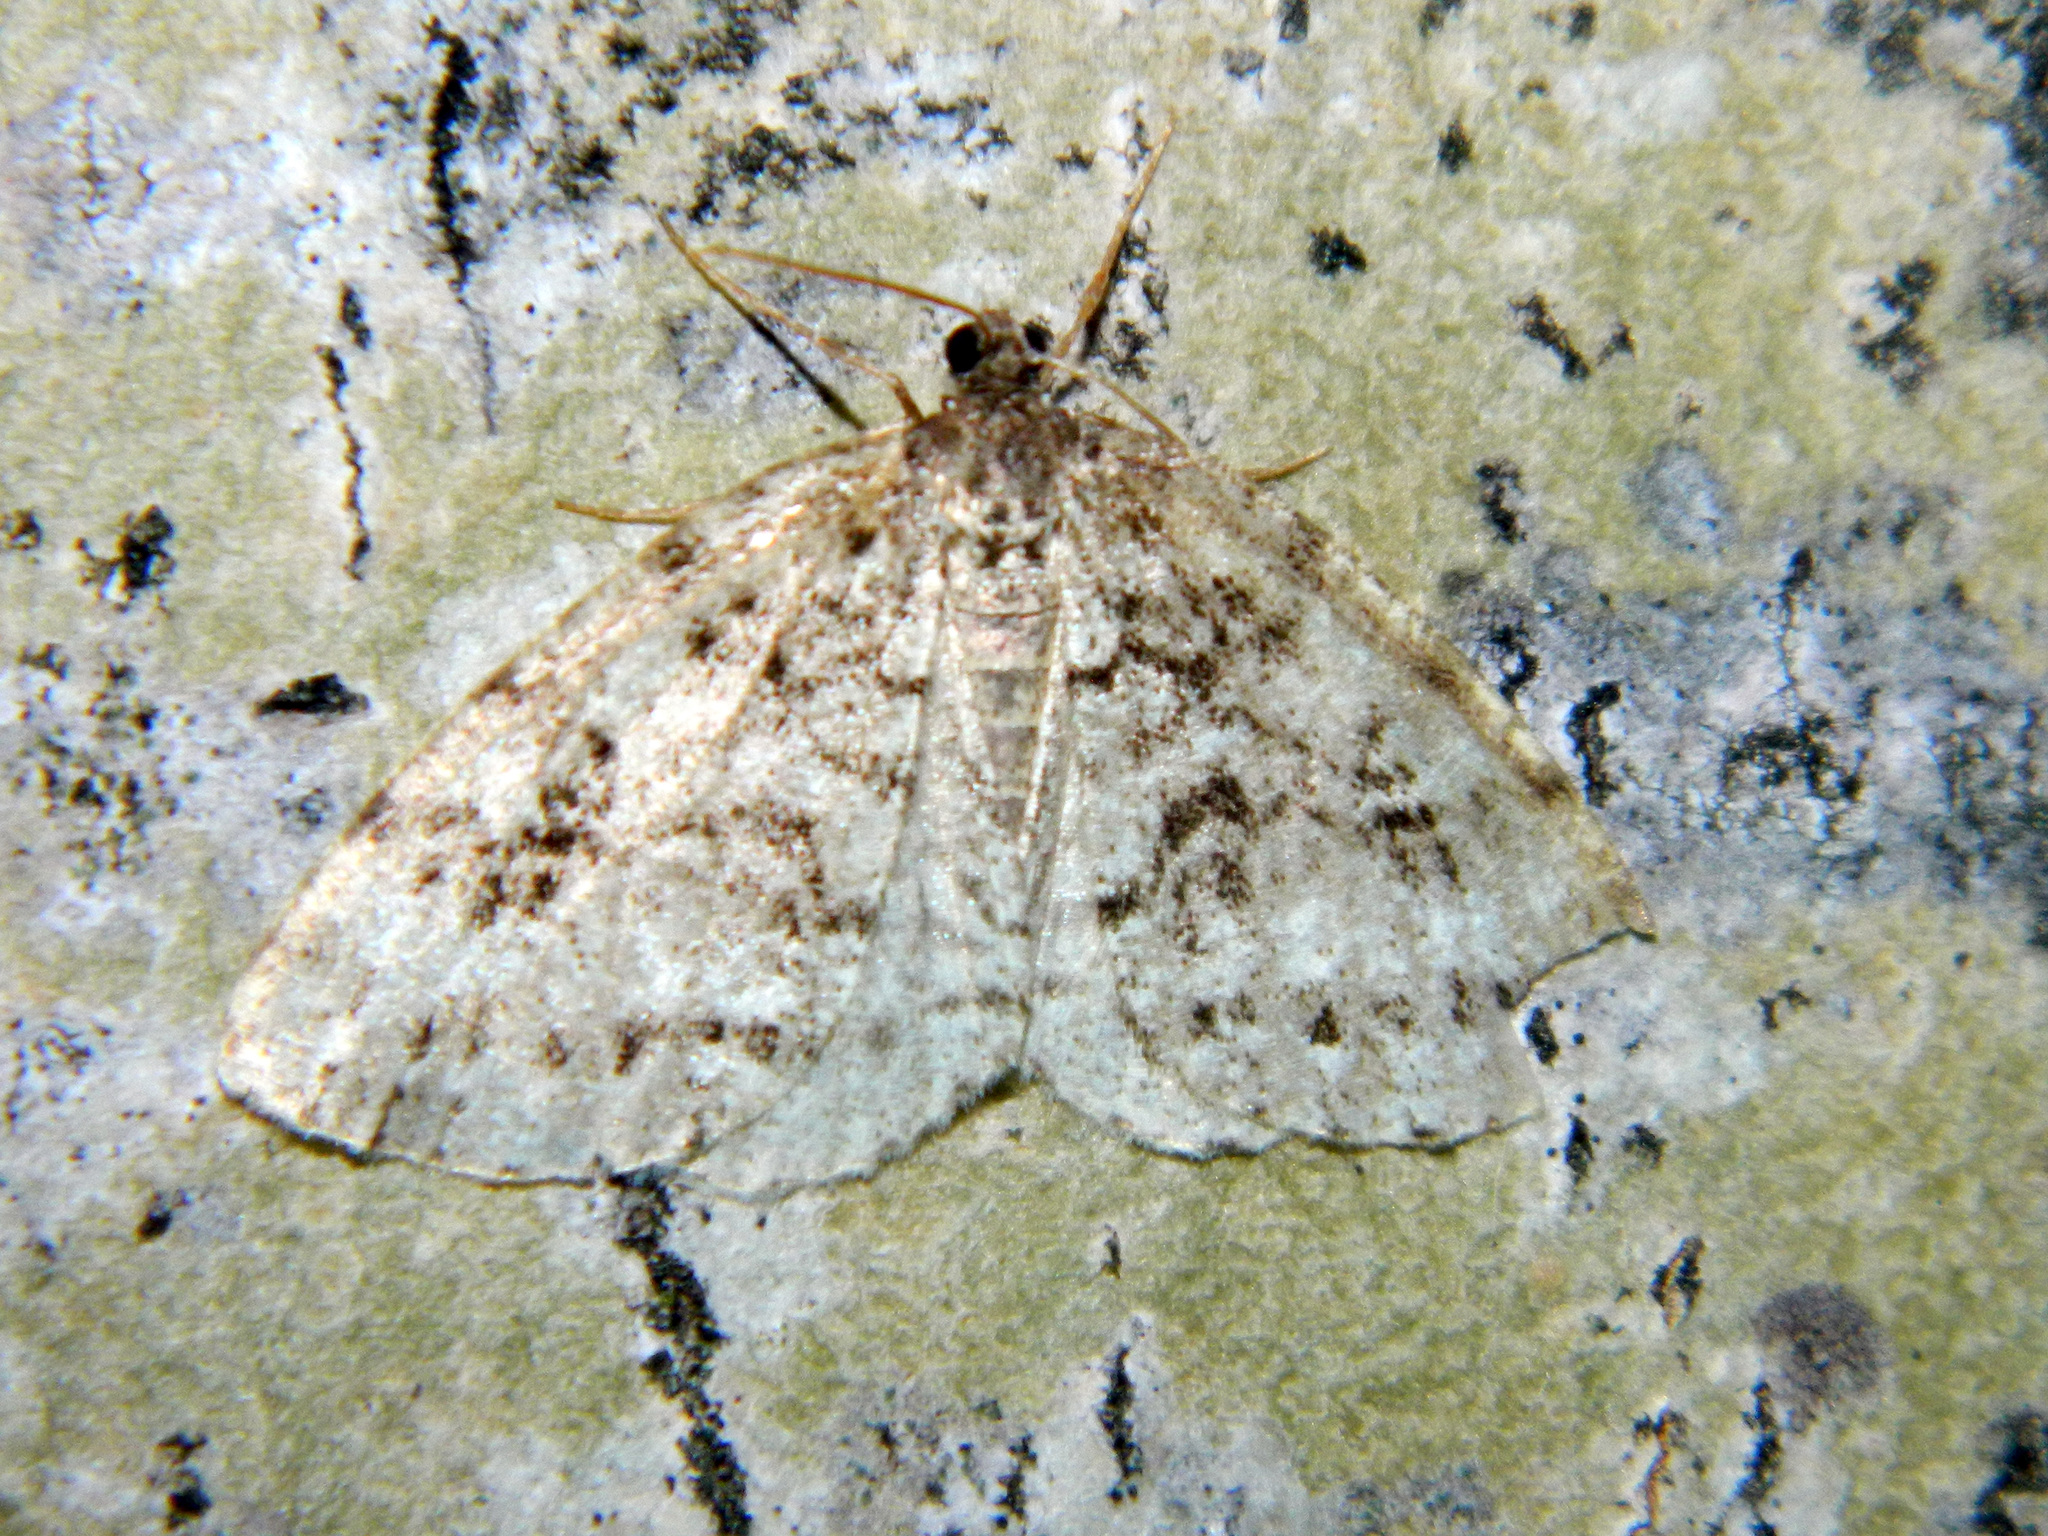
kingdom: Animalia
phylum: Arthropoda
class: Insecta
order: Lepidoptera
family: Geometridae
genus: Orthofidonia
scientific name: Orthofidonia exornata
